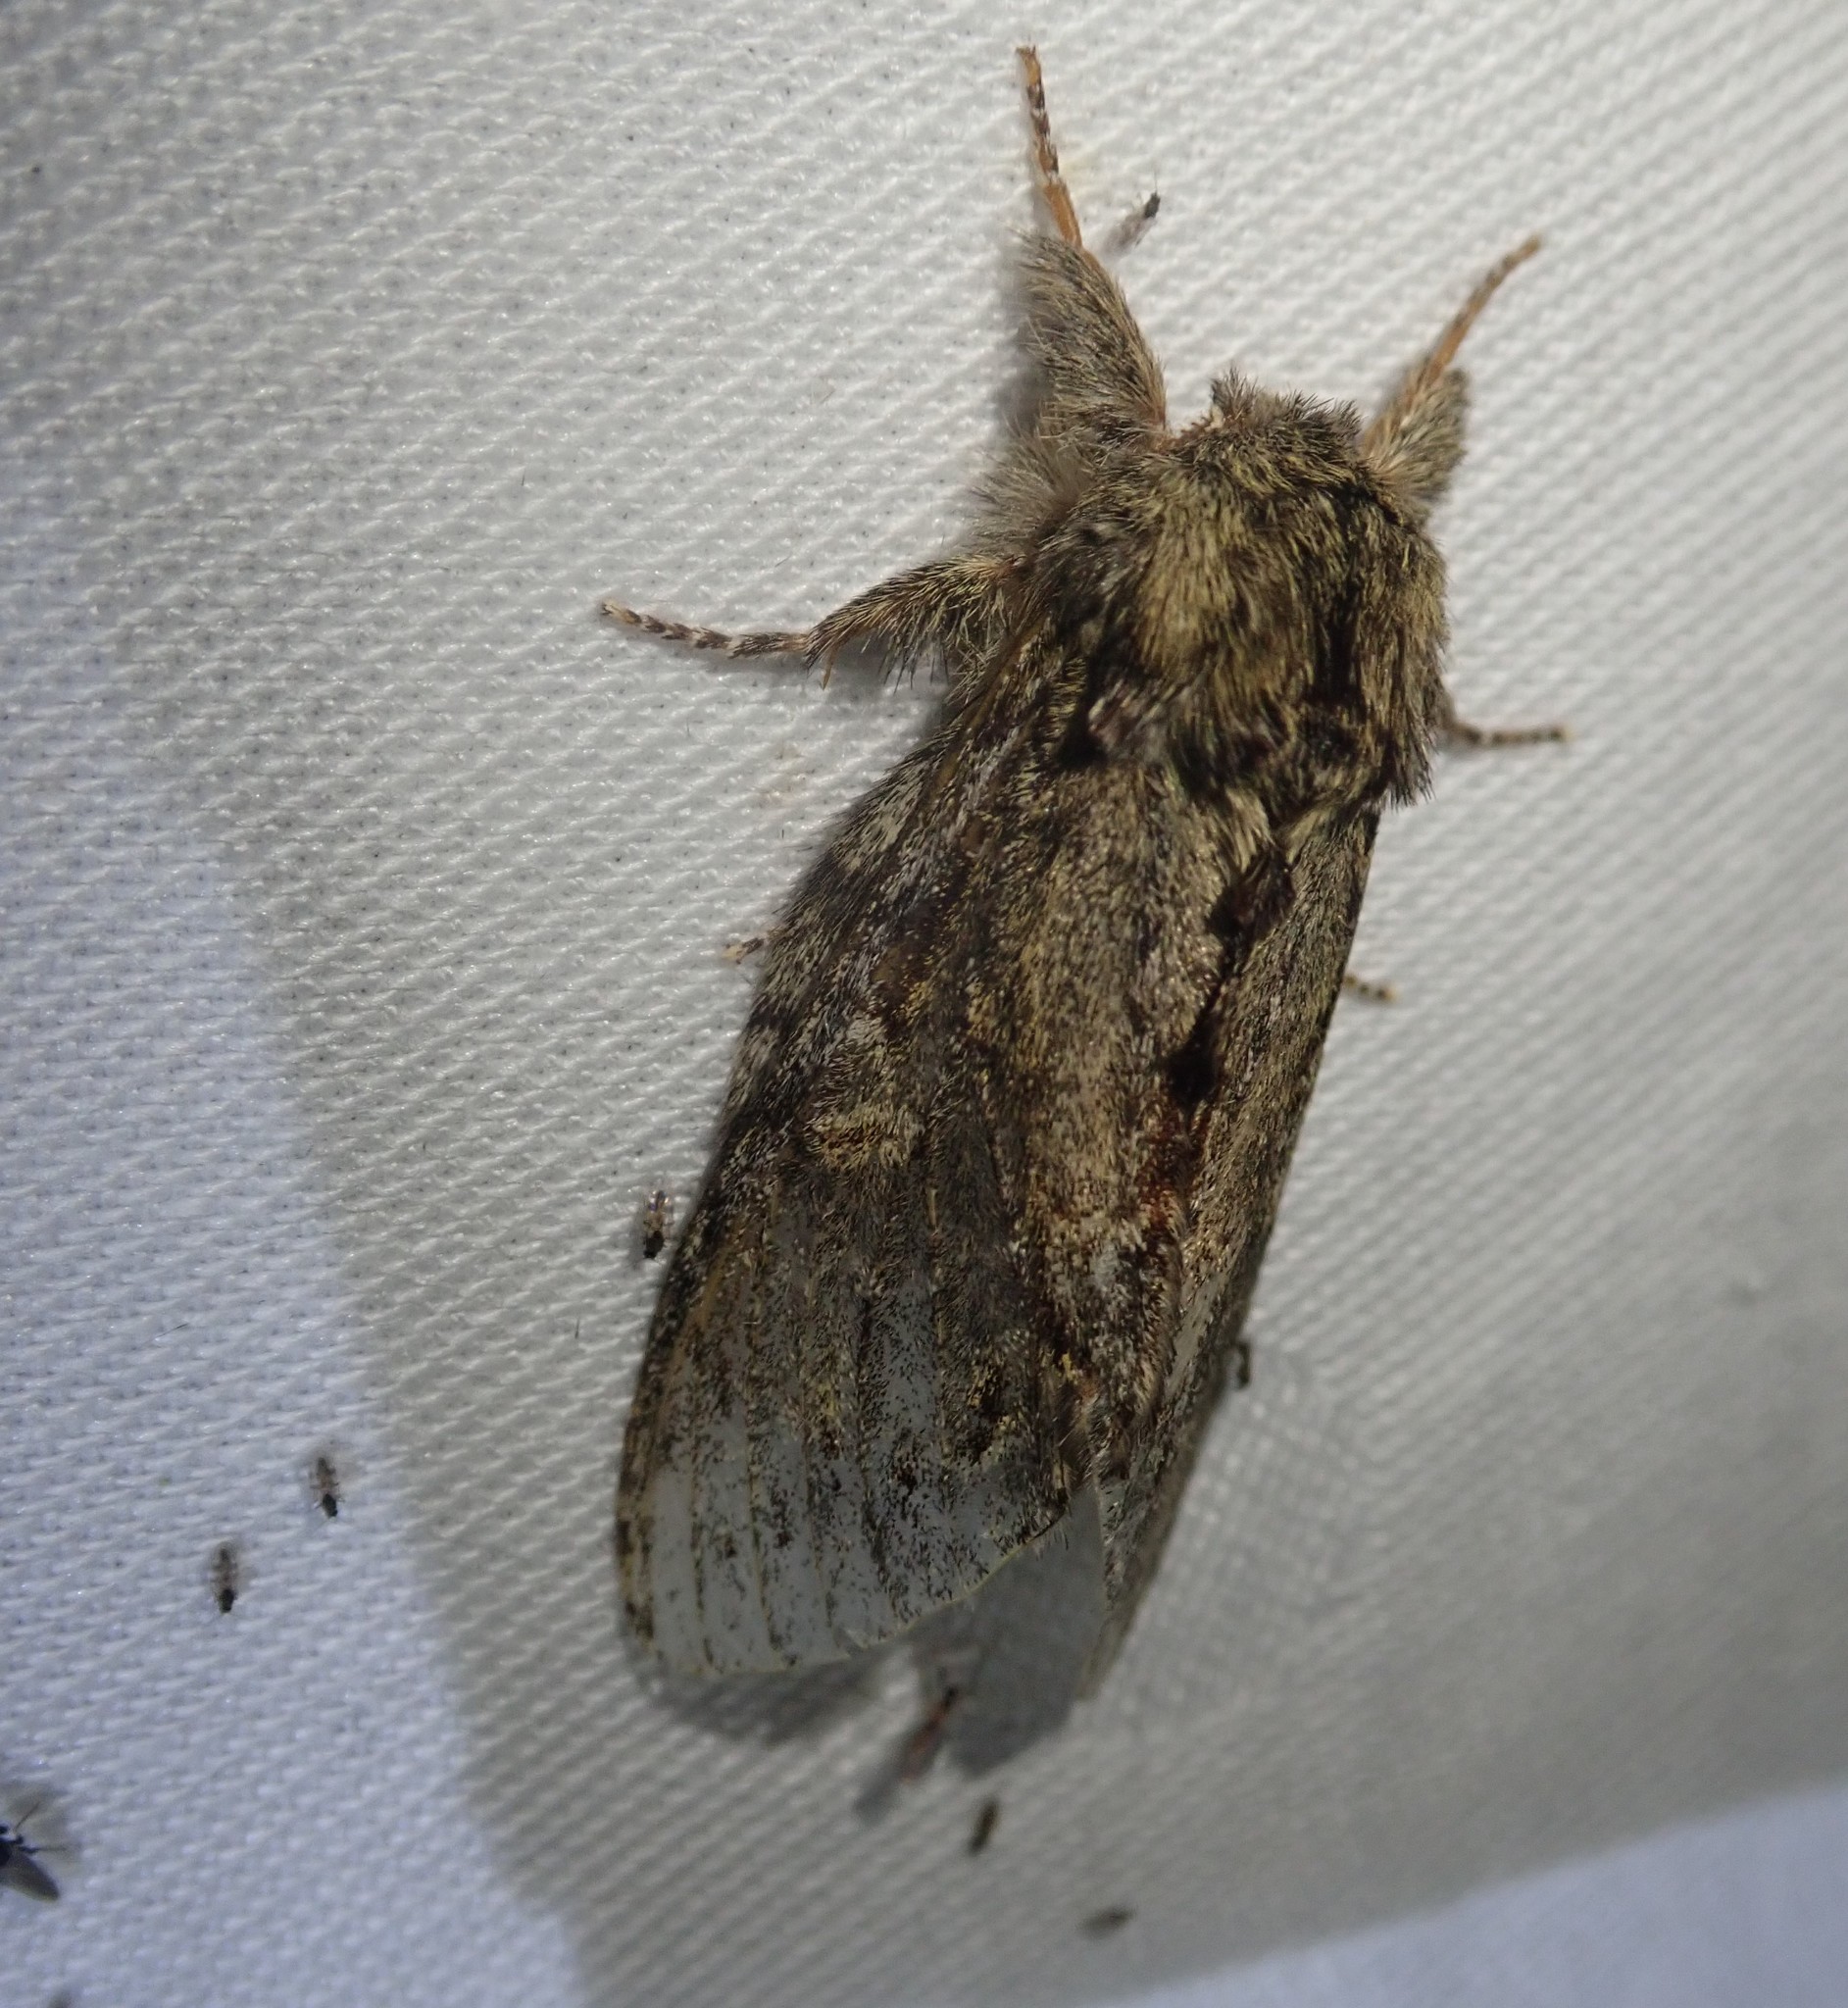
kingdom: Animalia
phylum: Arthropoda
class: Insecta
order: Lepidoptera
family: Notodontidae
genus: Peridea
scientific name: Peridea anceps
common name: Great prominent
